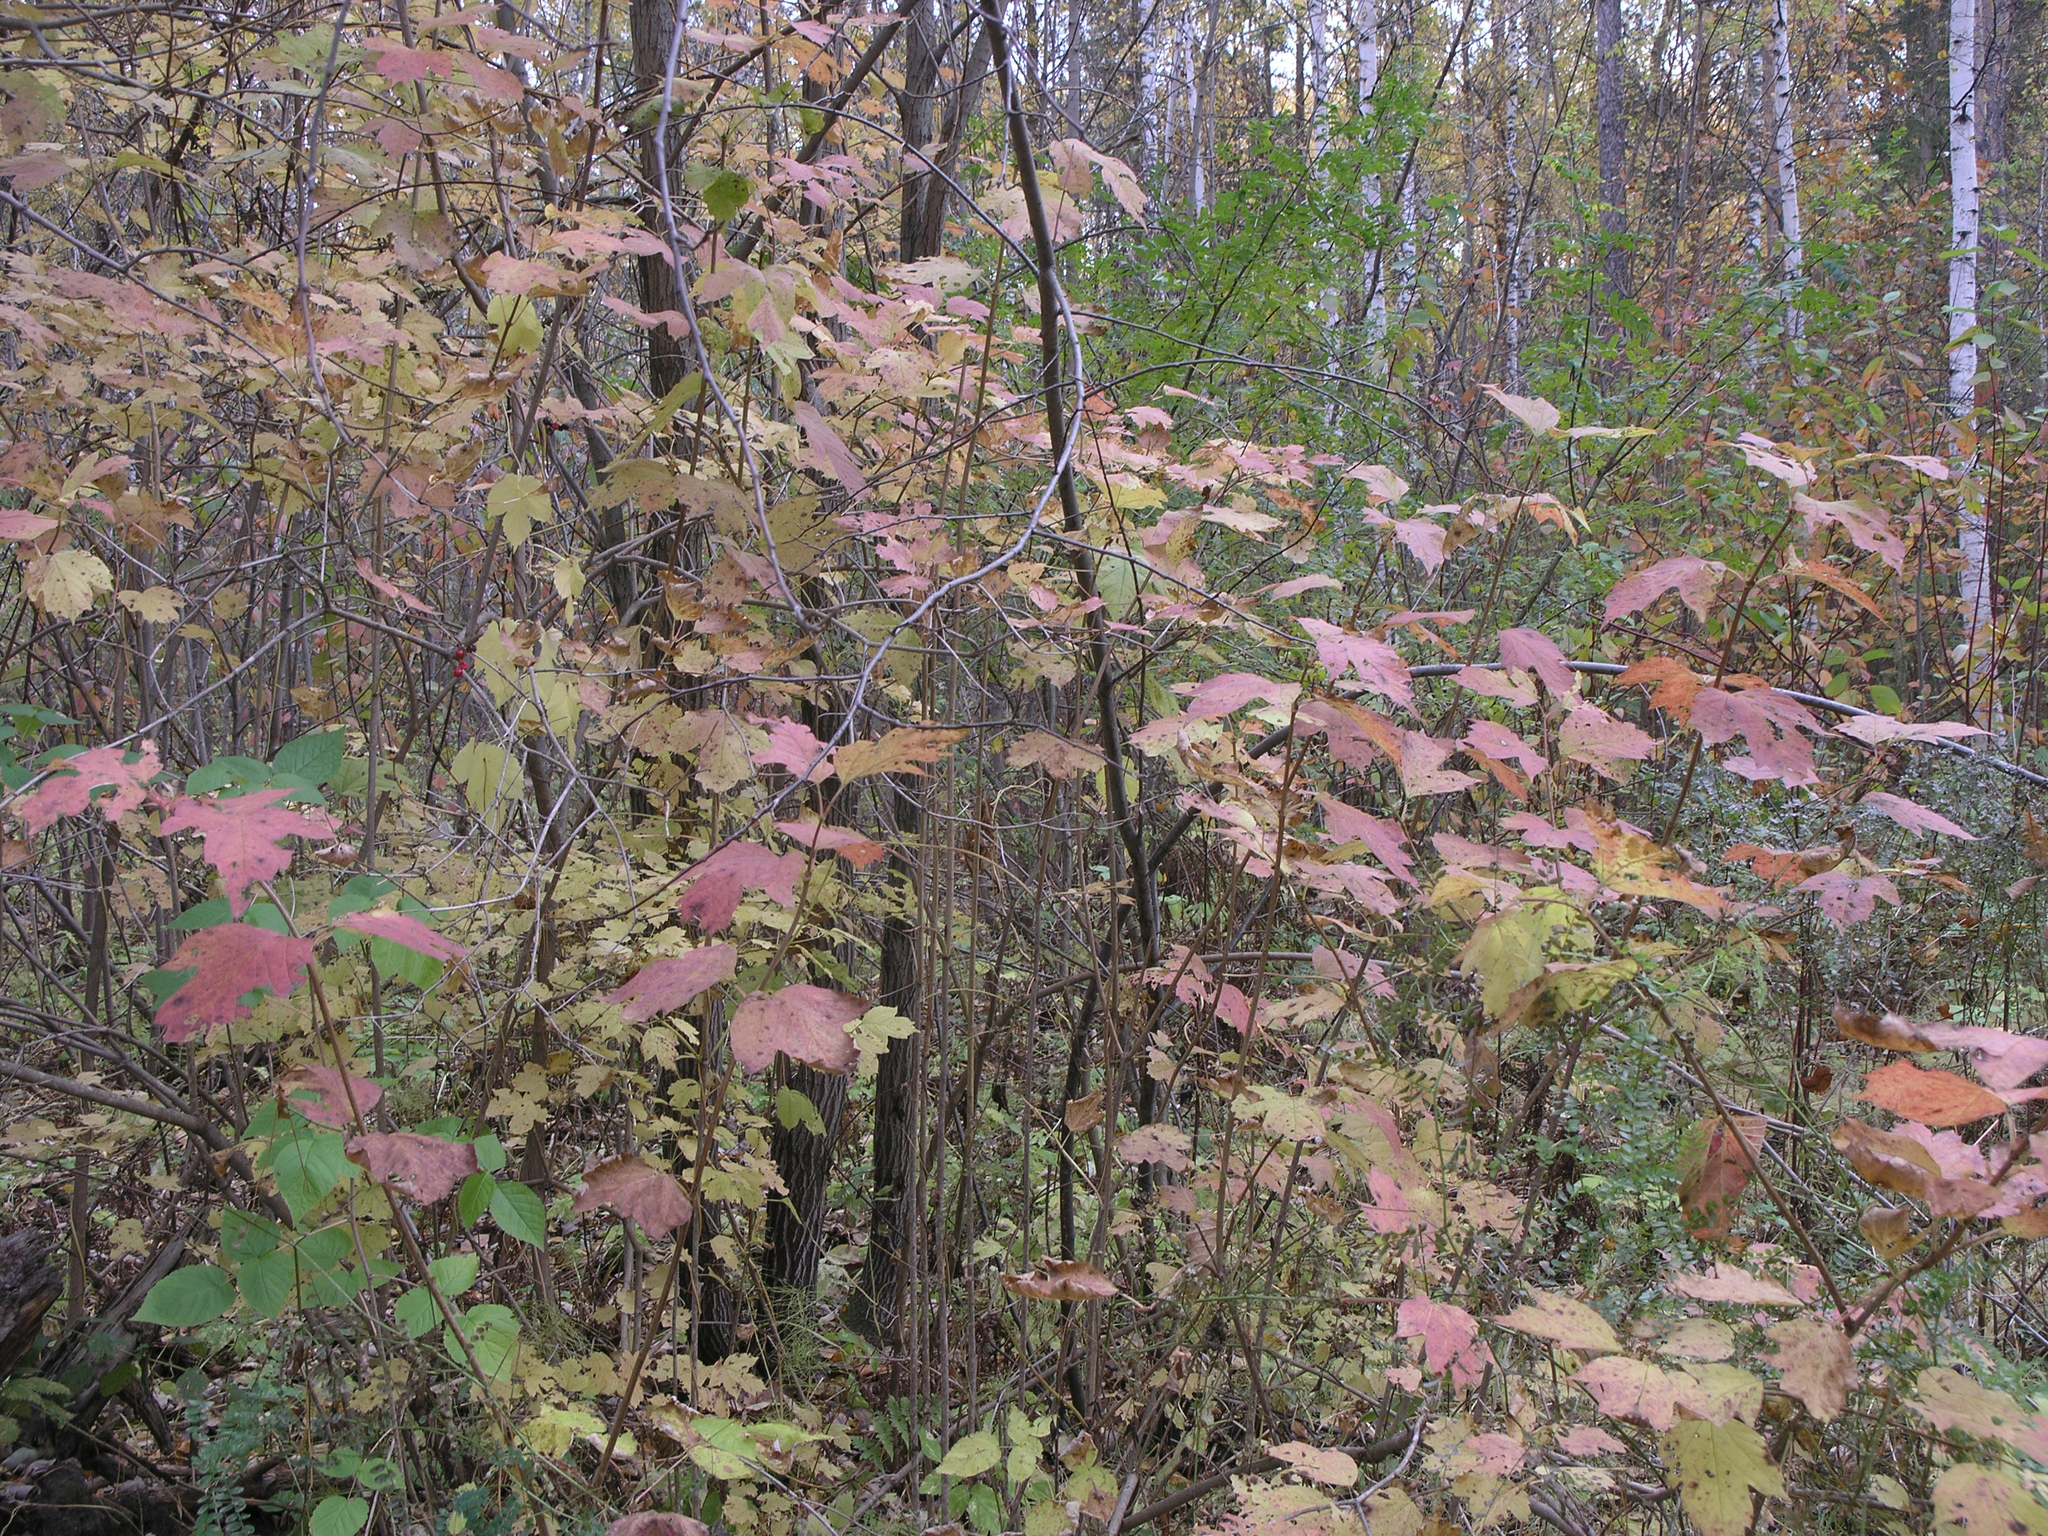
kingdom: Plantae
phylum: Tracheophyta
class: Magnoliopsida
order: Dipsacales
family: Viburnaceae
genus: Viburnum
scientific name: Viburnum opulus
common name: Guelder-rose
